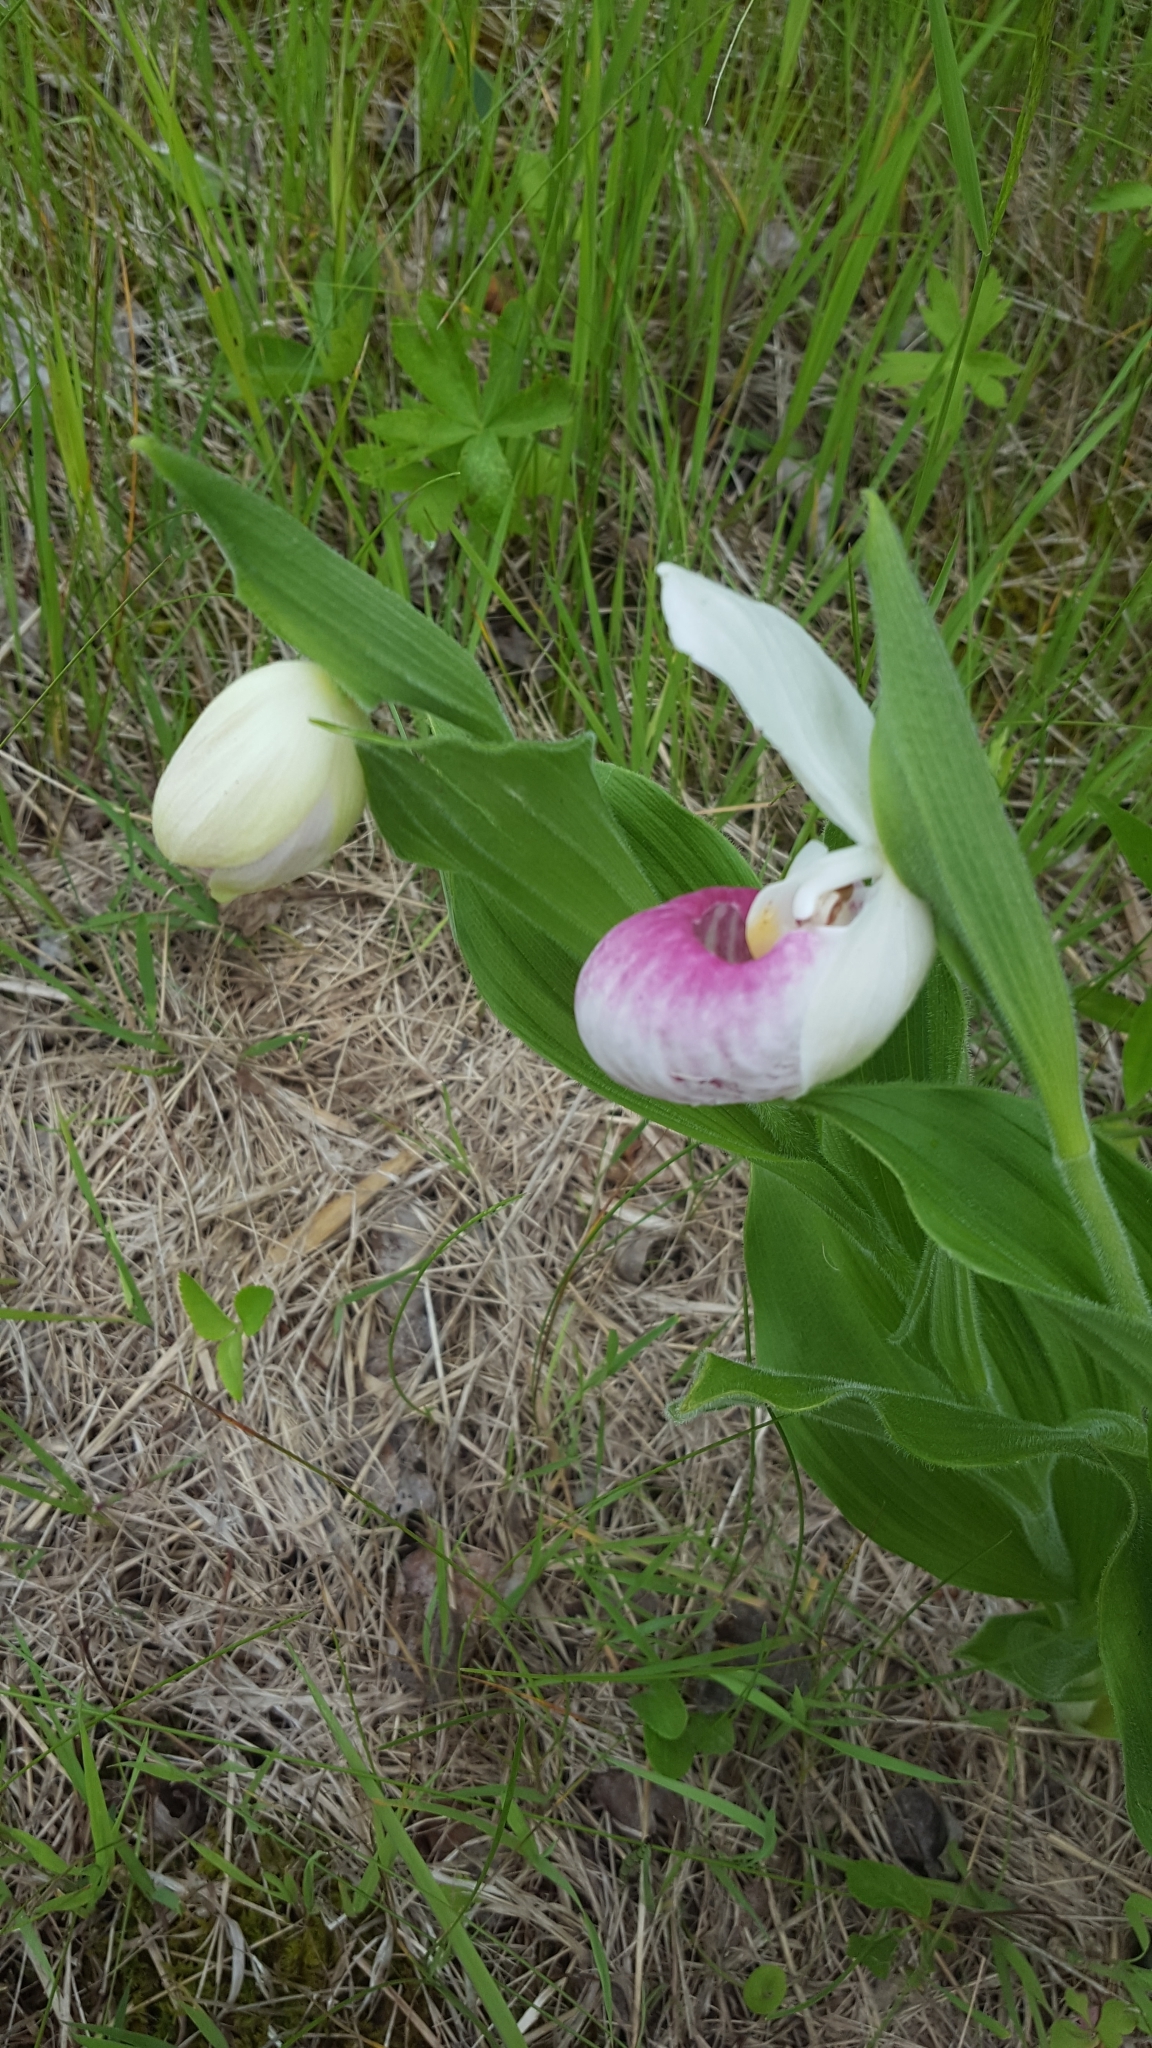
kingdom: Plantae
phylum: Tracheophyta
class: Liliopsida
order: Asparagales
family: Orchidaceae
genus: Cypripedium
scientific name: Cypripedium reginae
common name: Queen lady's-slipper
